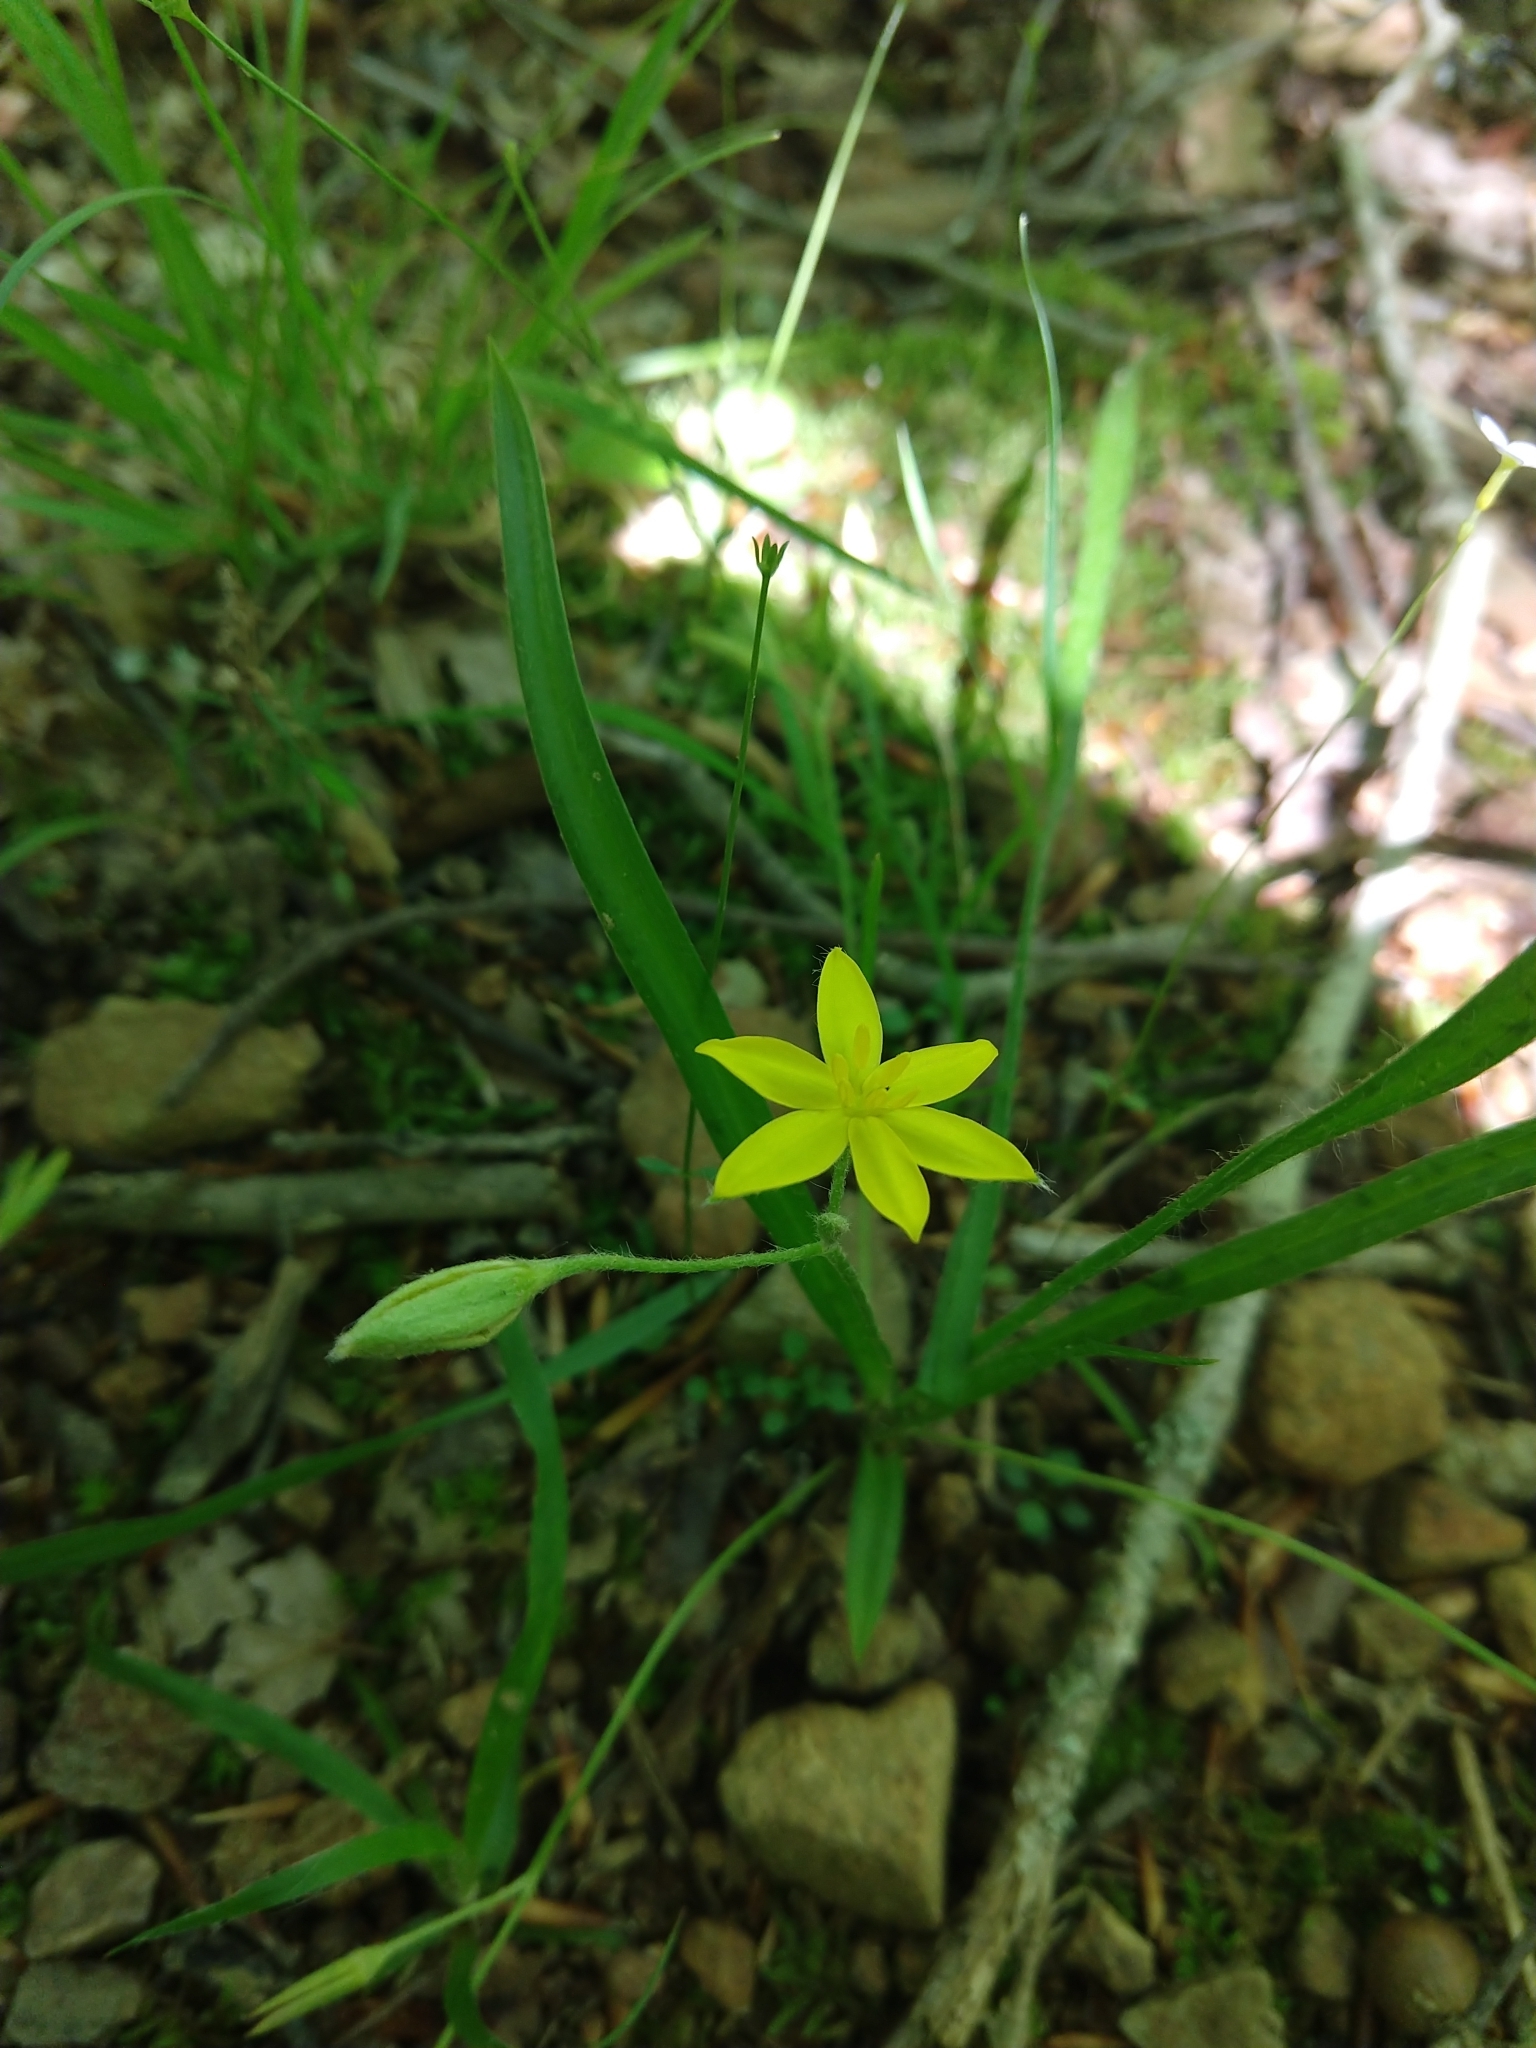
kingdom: Plantae
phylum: Tracheophyta
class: Liliopsida
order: Asparagales
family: Hypoxidaceae
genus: Hypoxis
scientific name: Hypoxis hirsuta
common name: Common goldstar
